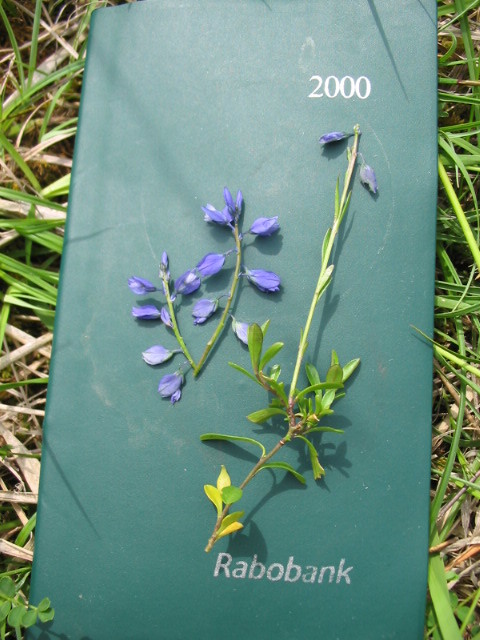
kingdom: Plantae
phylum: Tracheophyta
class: Magnoliopsida
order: Fabales
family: Polygalaceae
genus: Polygala
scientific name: Polygala serpyllifolia
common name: Heath milkwort
